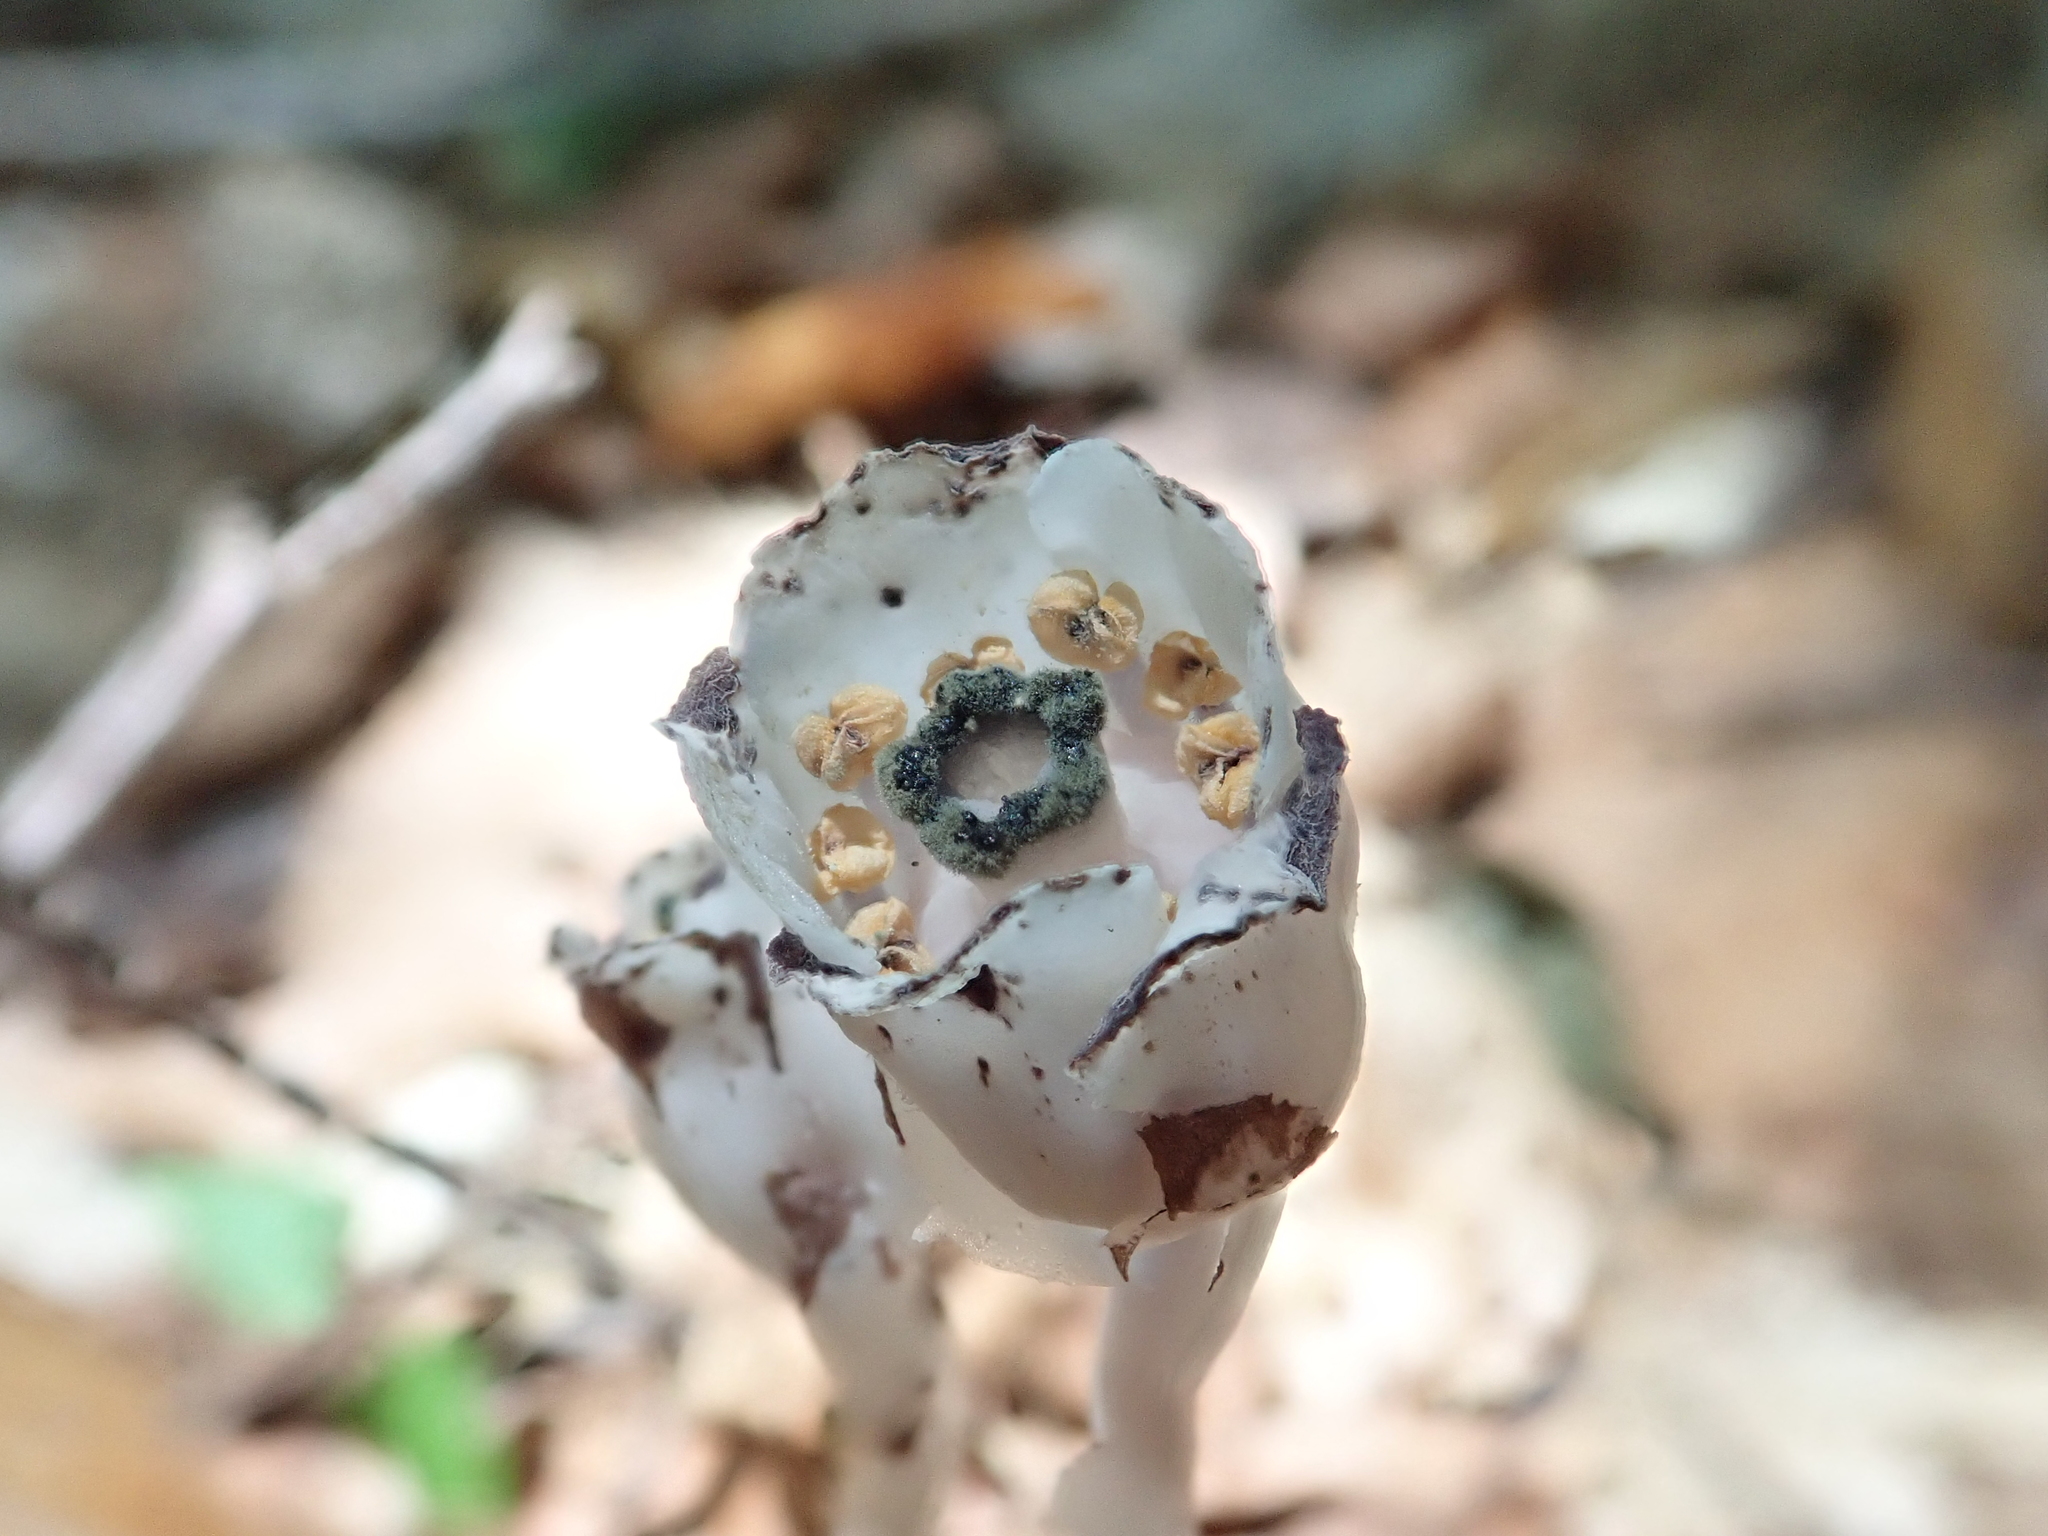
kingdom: Plantae
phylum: Tracheophyta
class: Magnoliopsida
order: Ericales
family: Ericaceae
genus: Monotropa
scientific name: Monotropa uniflora
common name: Convulsion root
